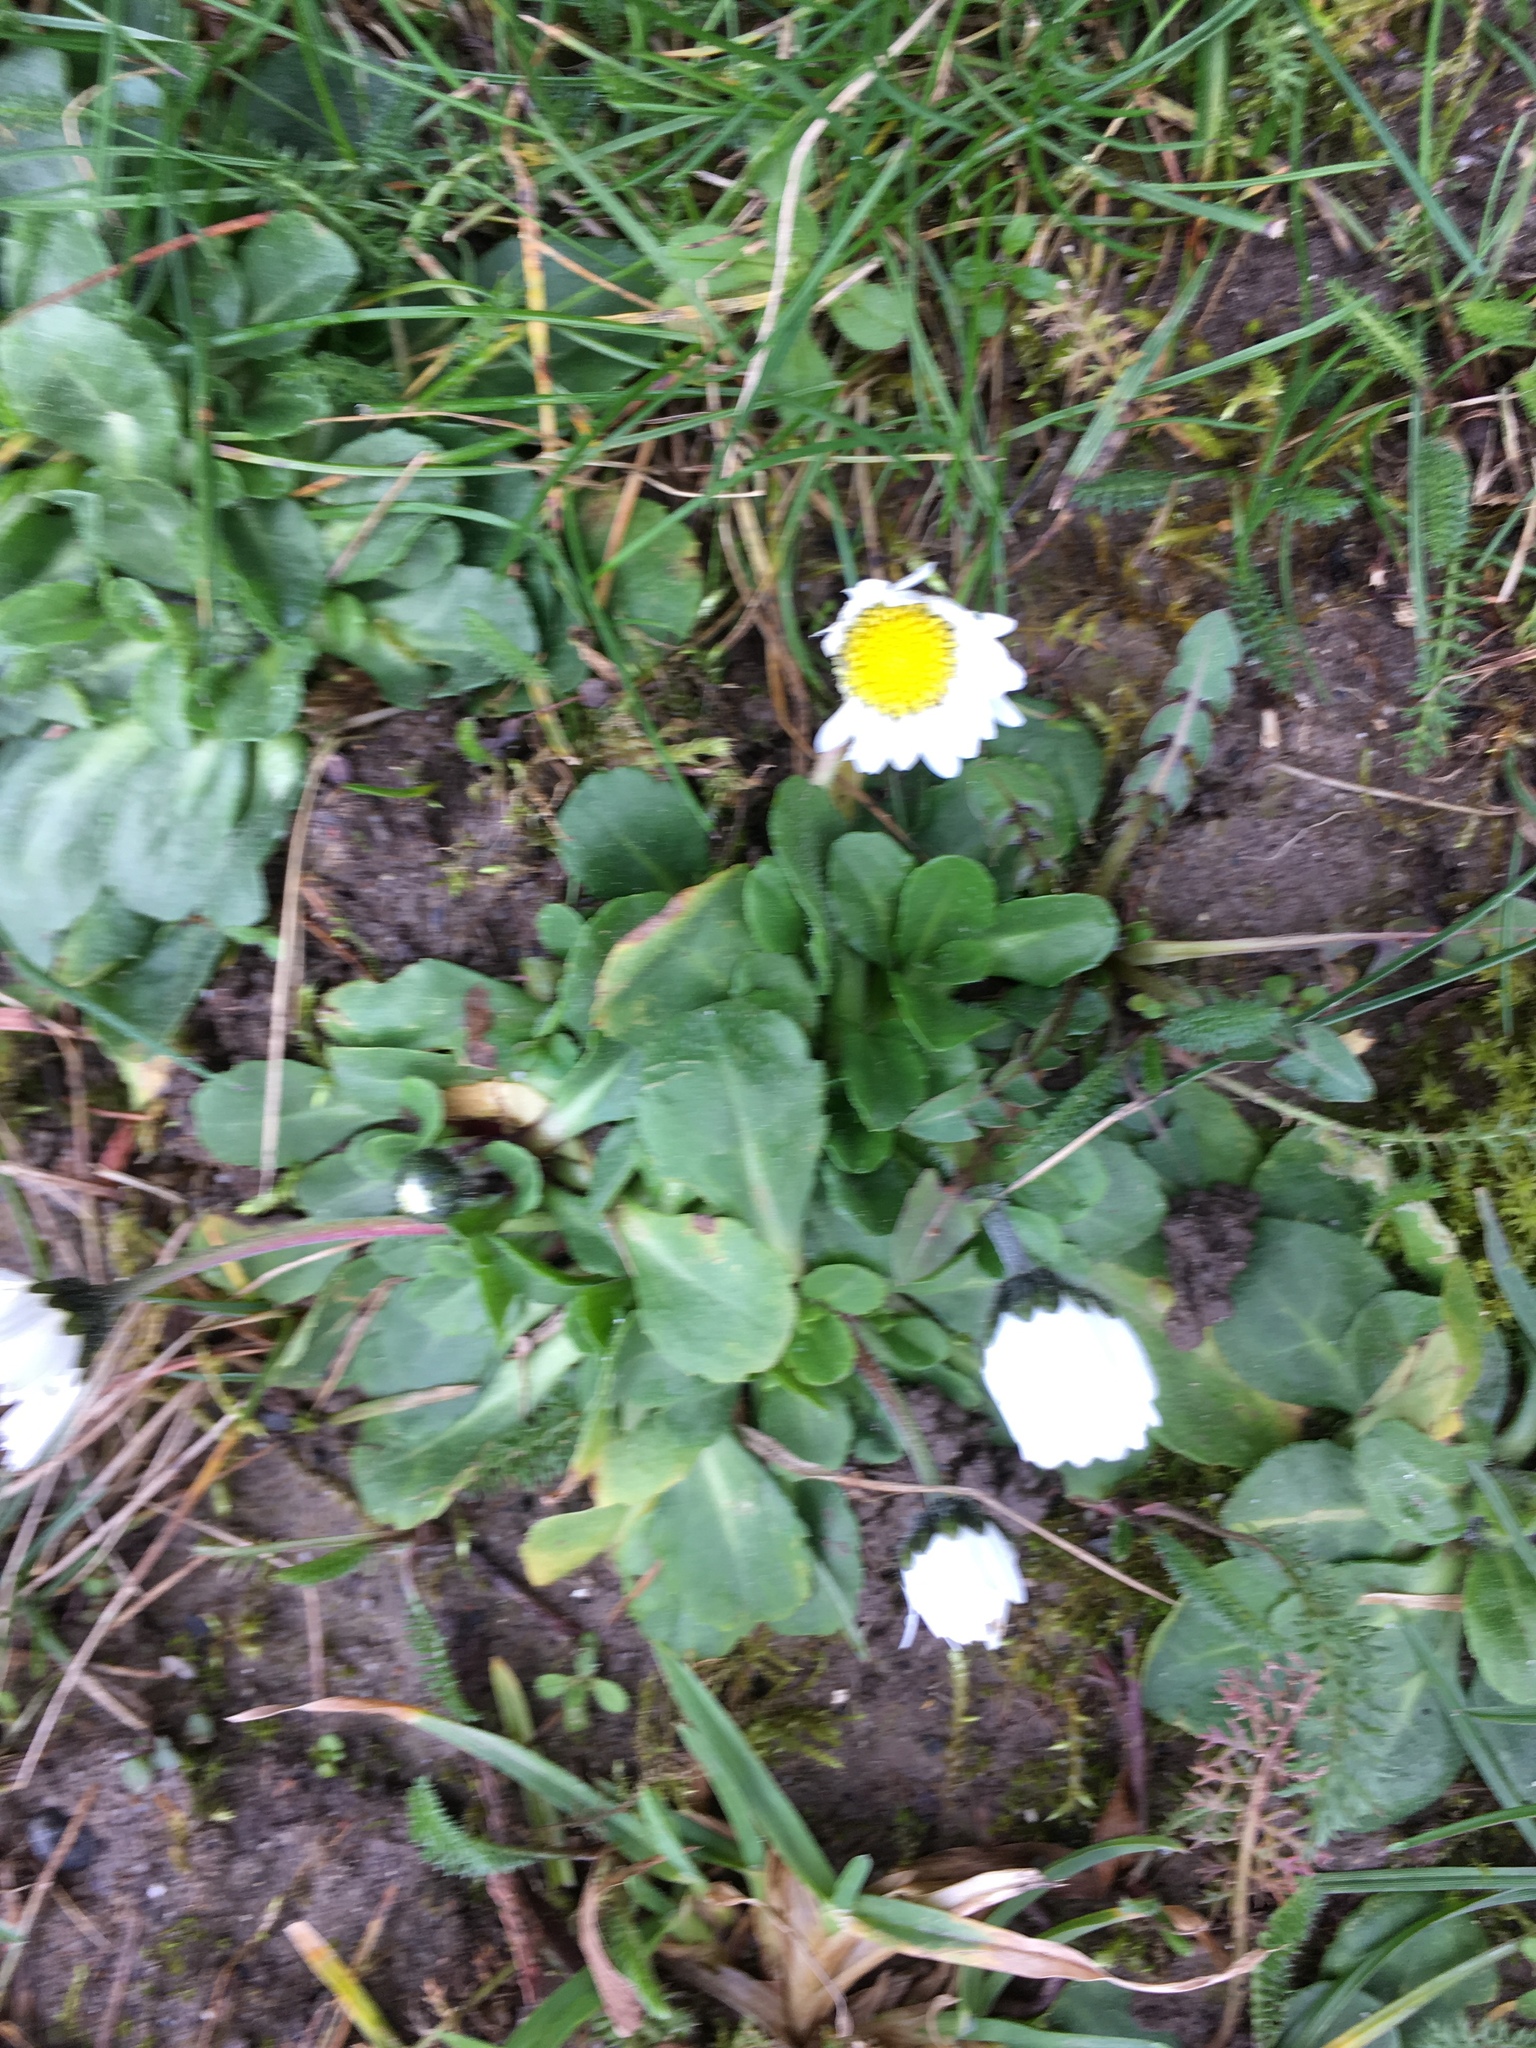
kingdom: Plantae
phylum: Tracheophyta
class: Magnoliopsida
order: Asterales
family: Asteraceae
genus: Bellis
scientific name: Bellis perennis
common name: Lawndaisy
